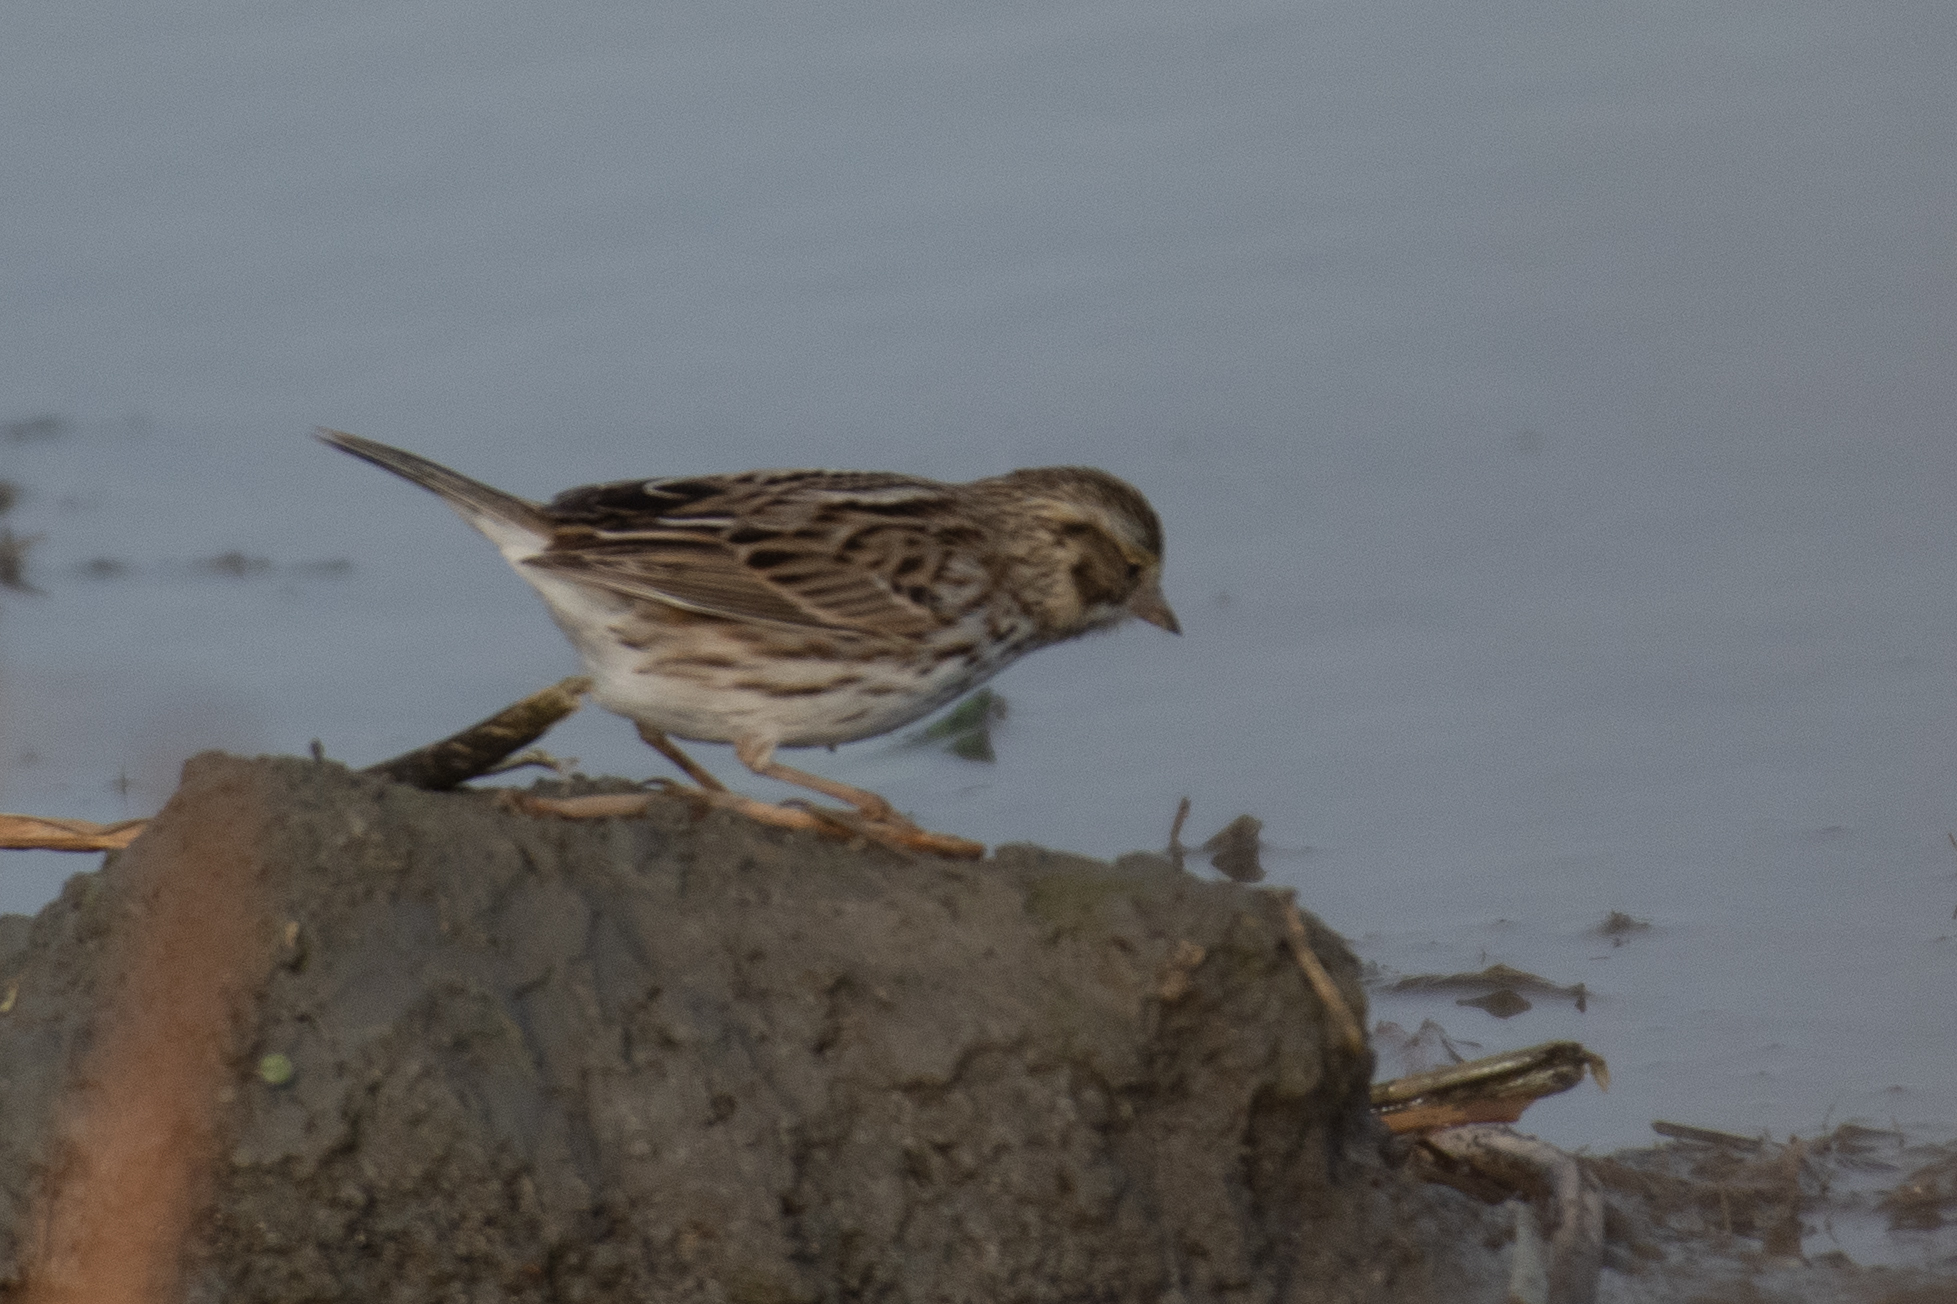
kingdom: Animalia
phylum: Chordata
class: Aves
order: Passeriformes
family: Passerellidae
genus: Passerculus
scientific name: Passerculus sandwichensis
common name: Savannah sparrow
